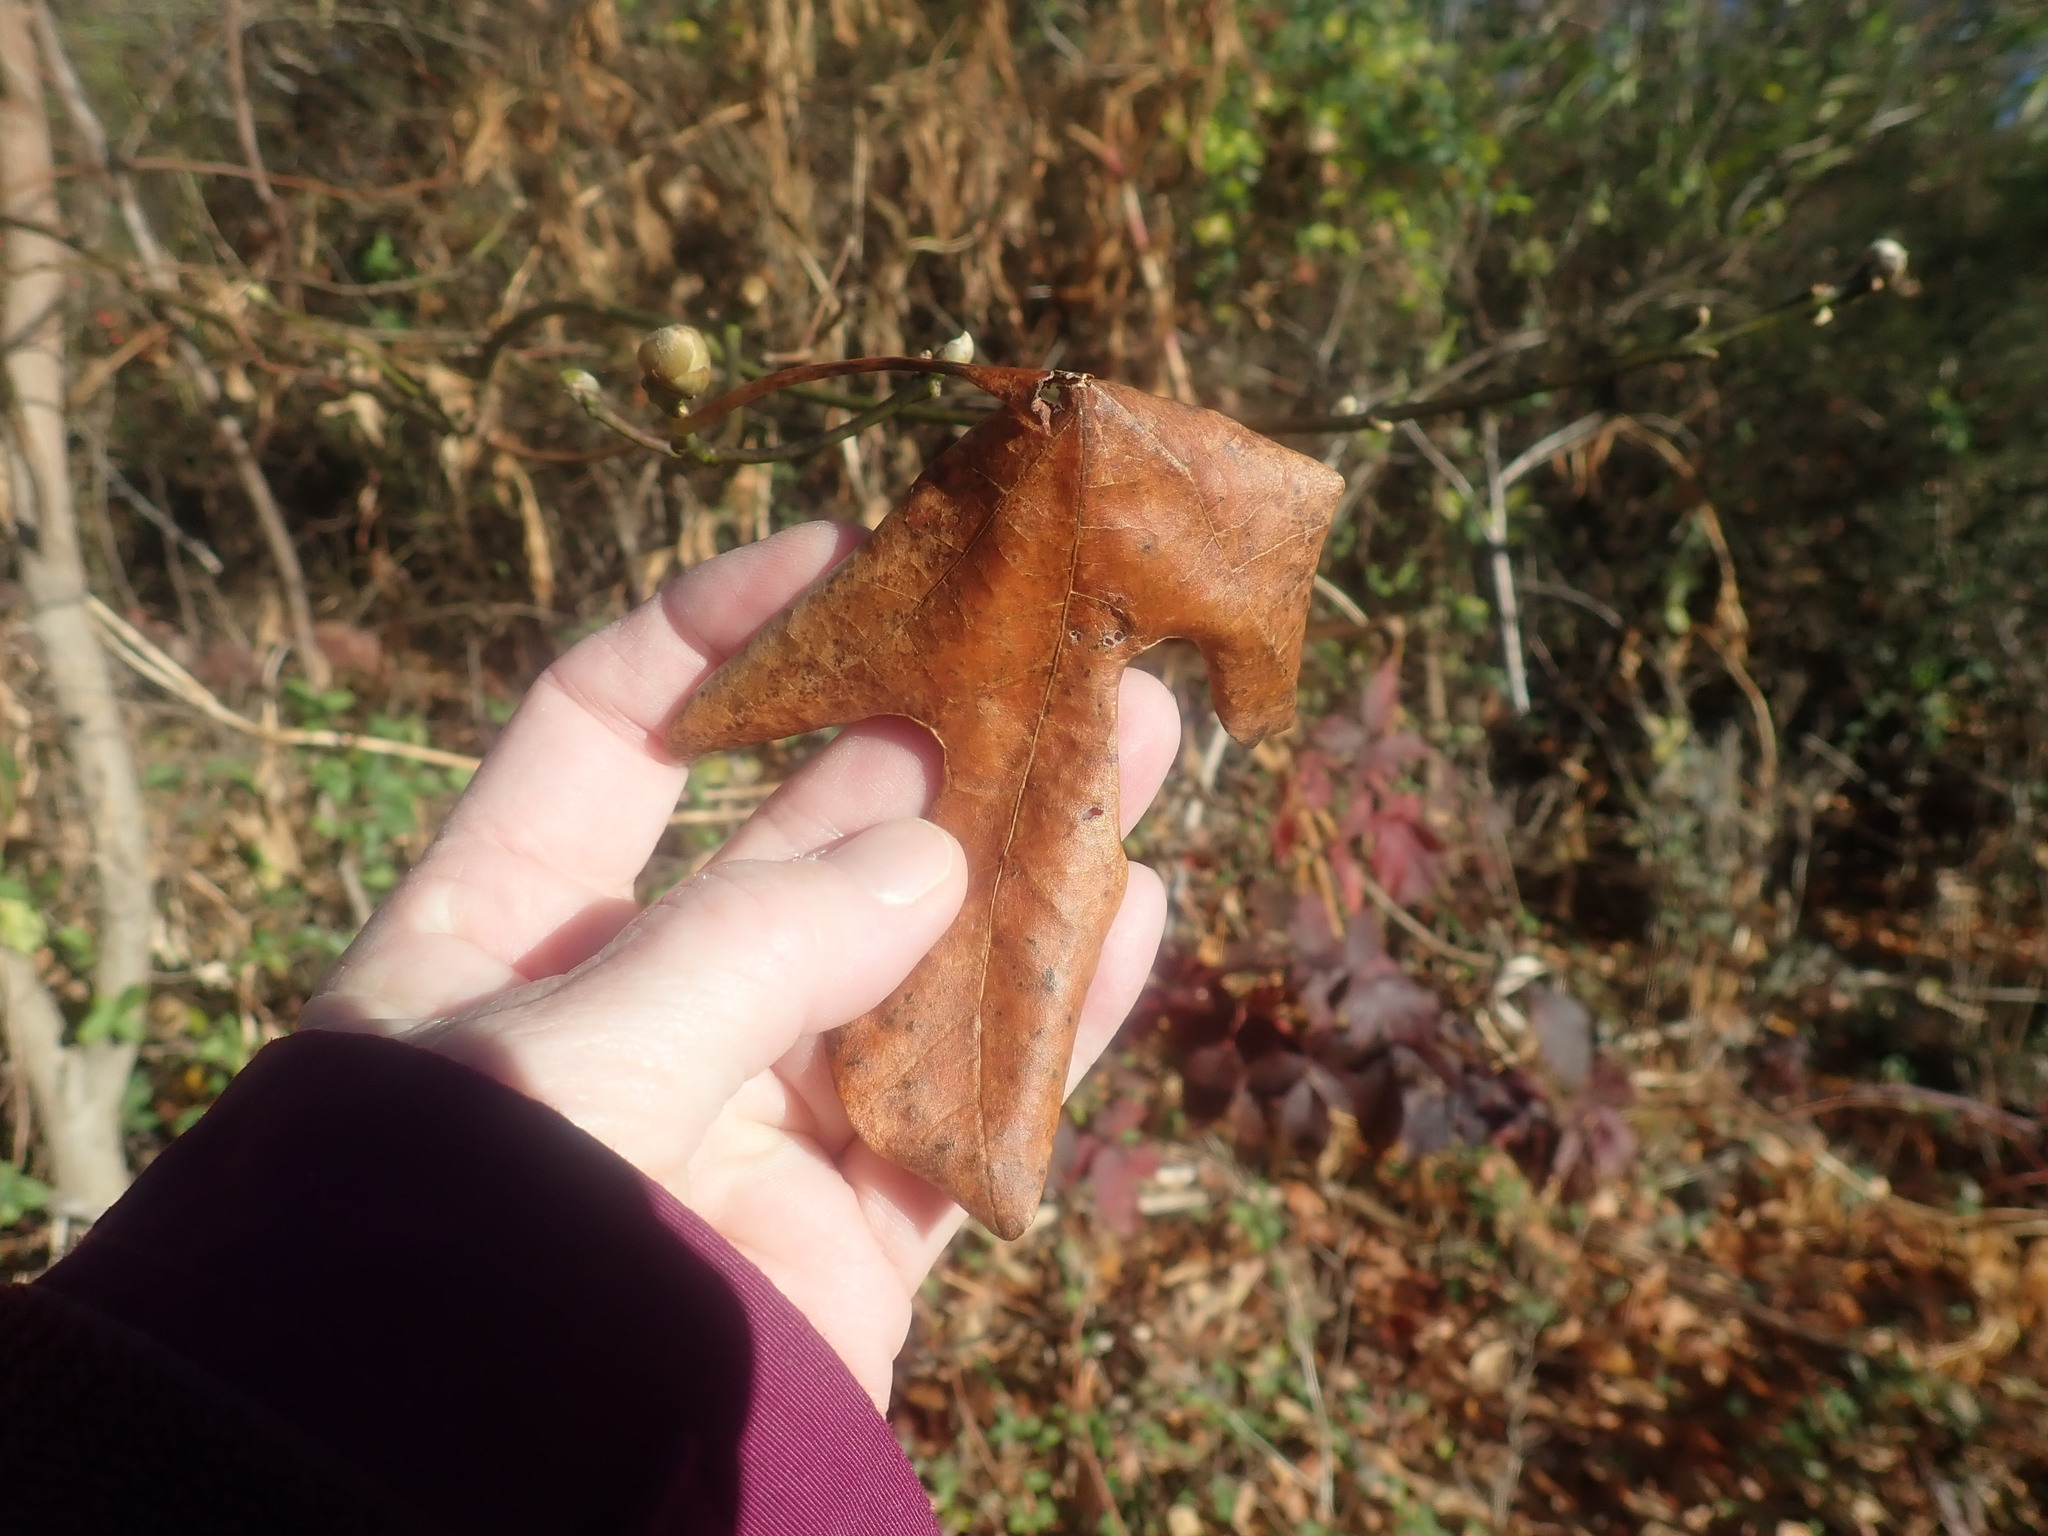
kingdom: Plantae
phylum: Tracheophyta
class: Magnoliopsida
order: Laurales
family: Lauraceae
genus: Sassafras
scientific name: Sassafras albidum
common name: Sassafras
